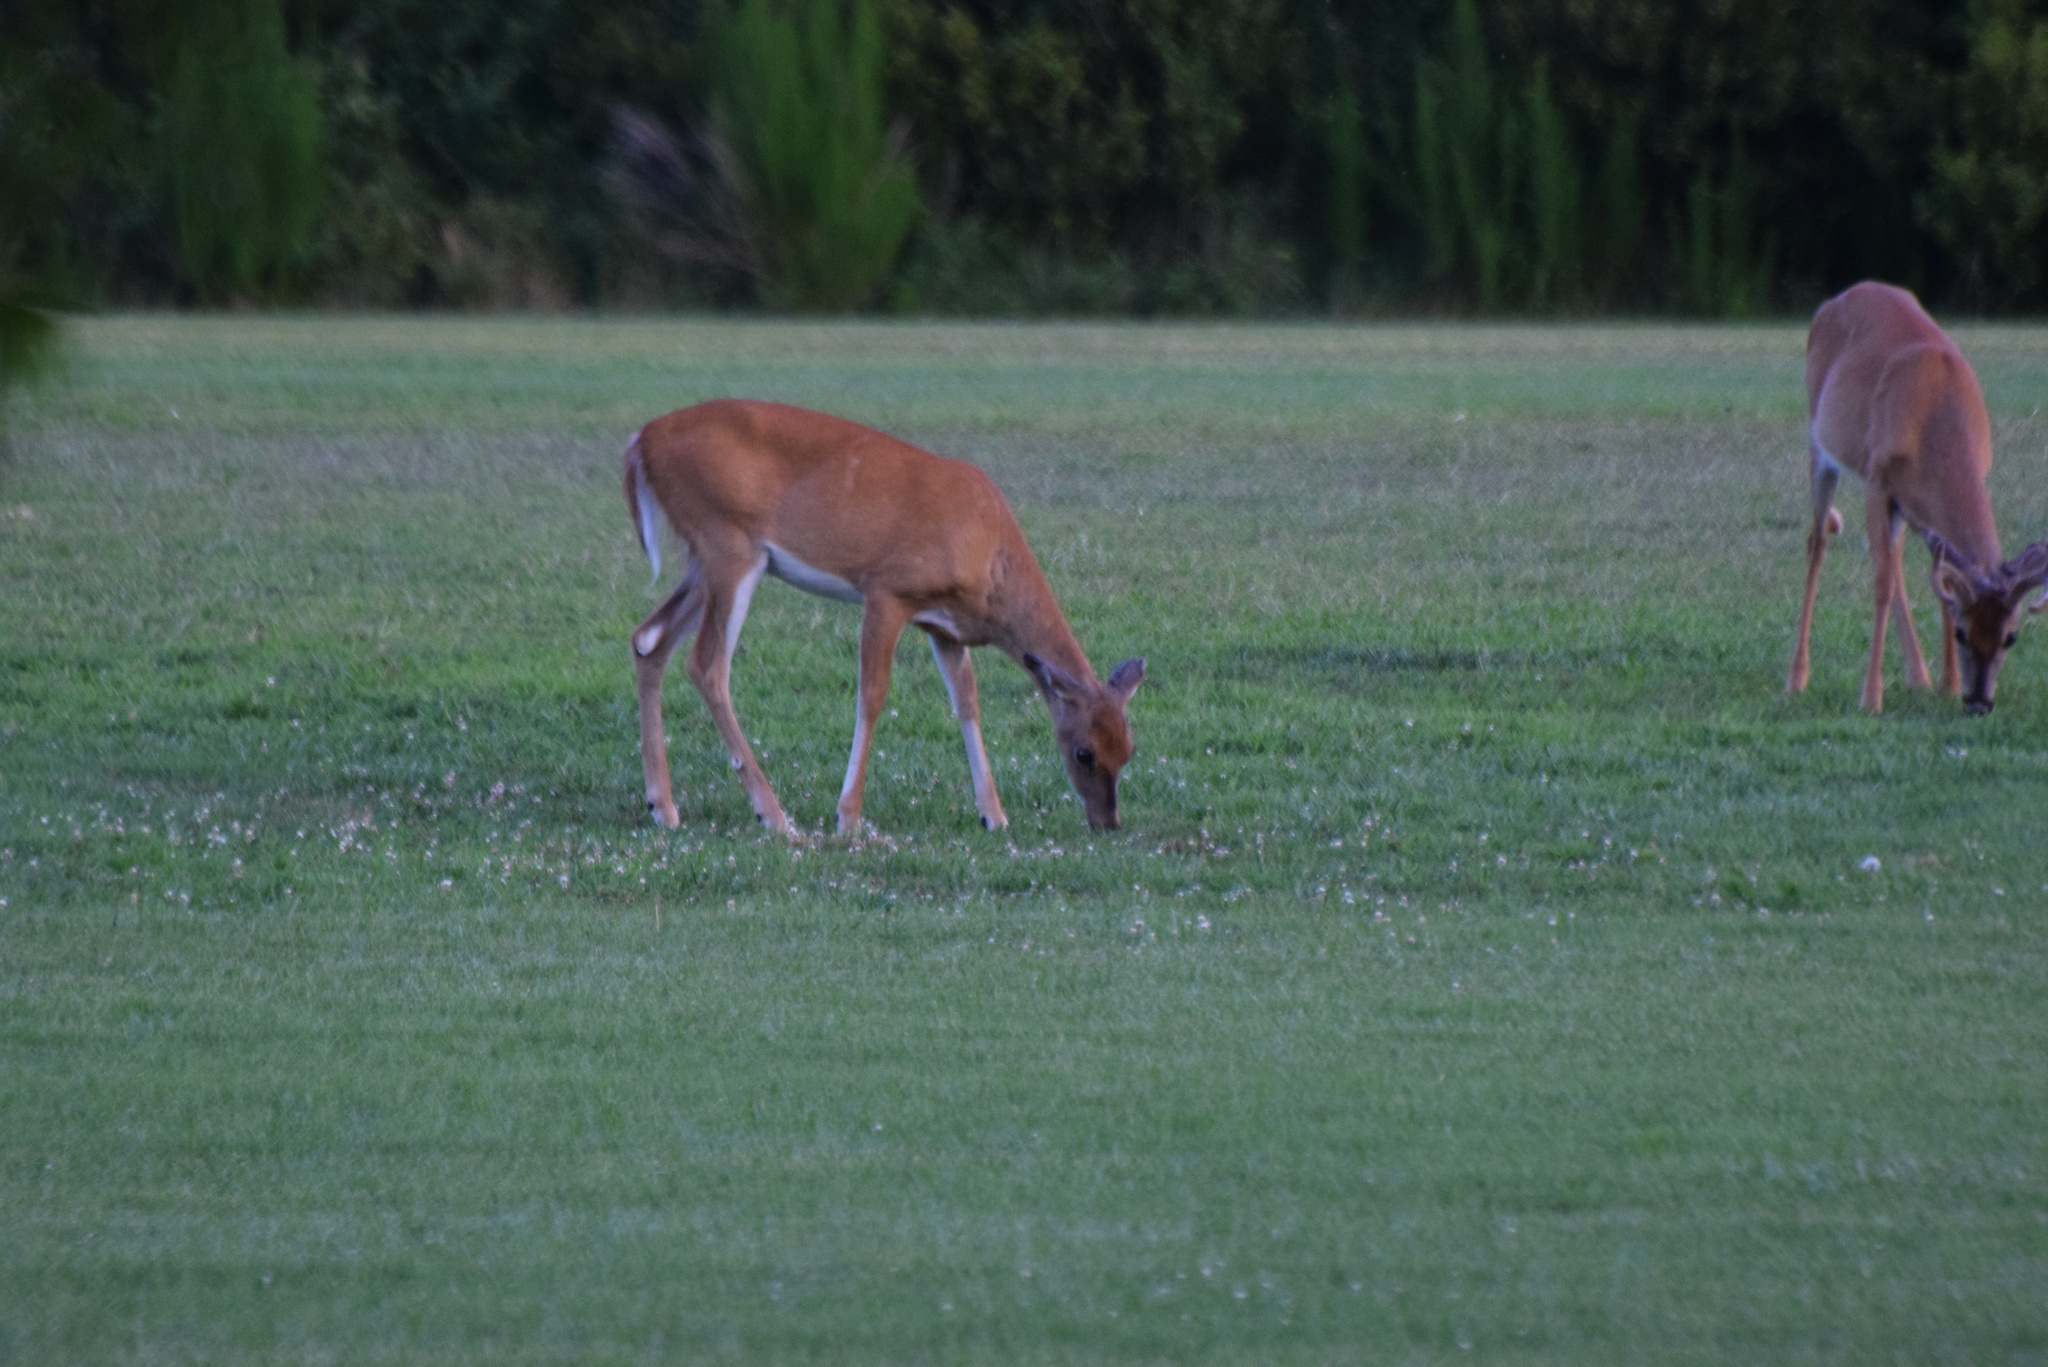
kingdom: Animalia
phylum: Chordata
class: Mammalia
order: Artiodactyla
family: Cervidae
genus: Odocoileus
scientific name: Odocoileus virginianus
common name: White-tailed deer
